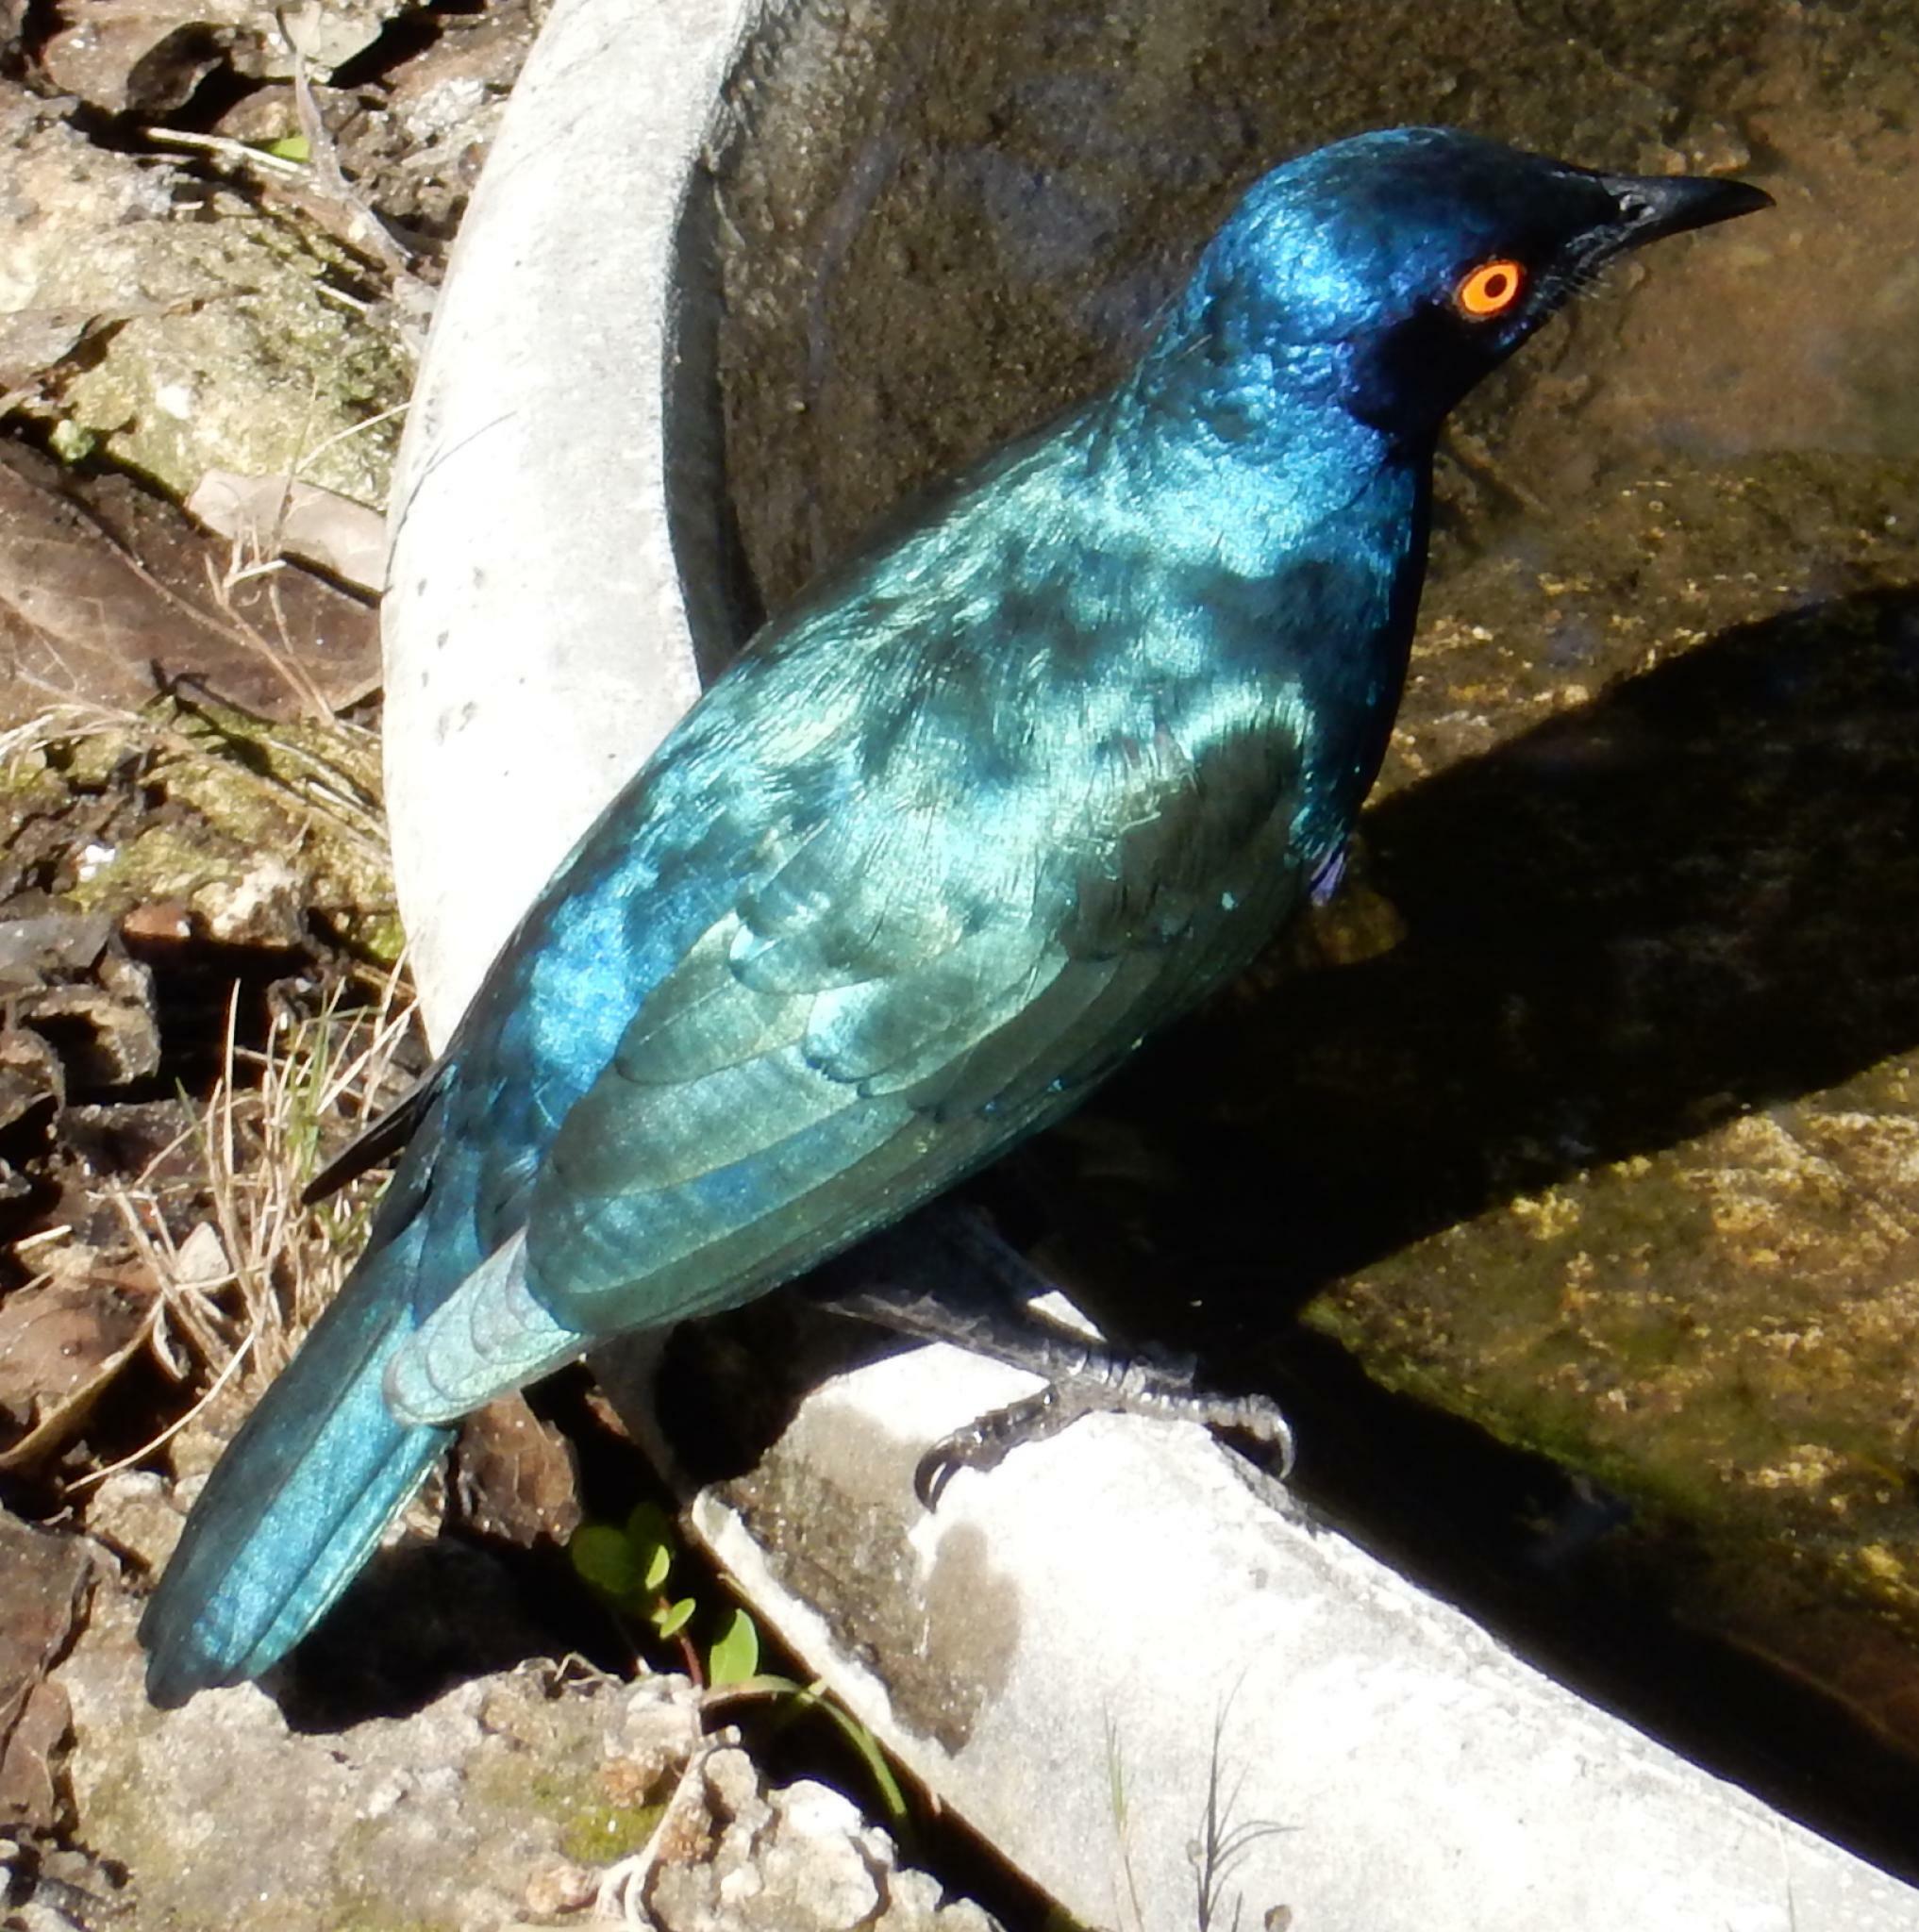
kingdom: Animalia
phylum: Chordata
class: Aves
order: Passeriformes
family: Sturnidae
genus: Lamprotornis
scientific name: Lamprotornis nitens
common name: Cape starling
